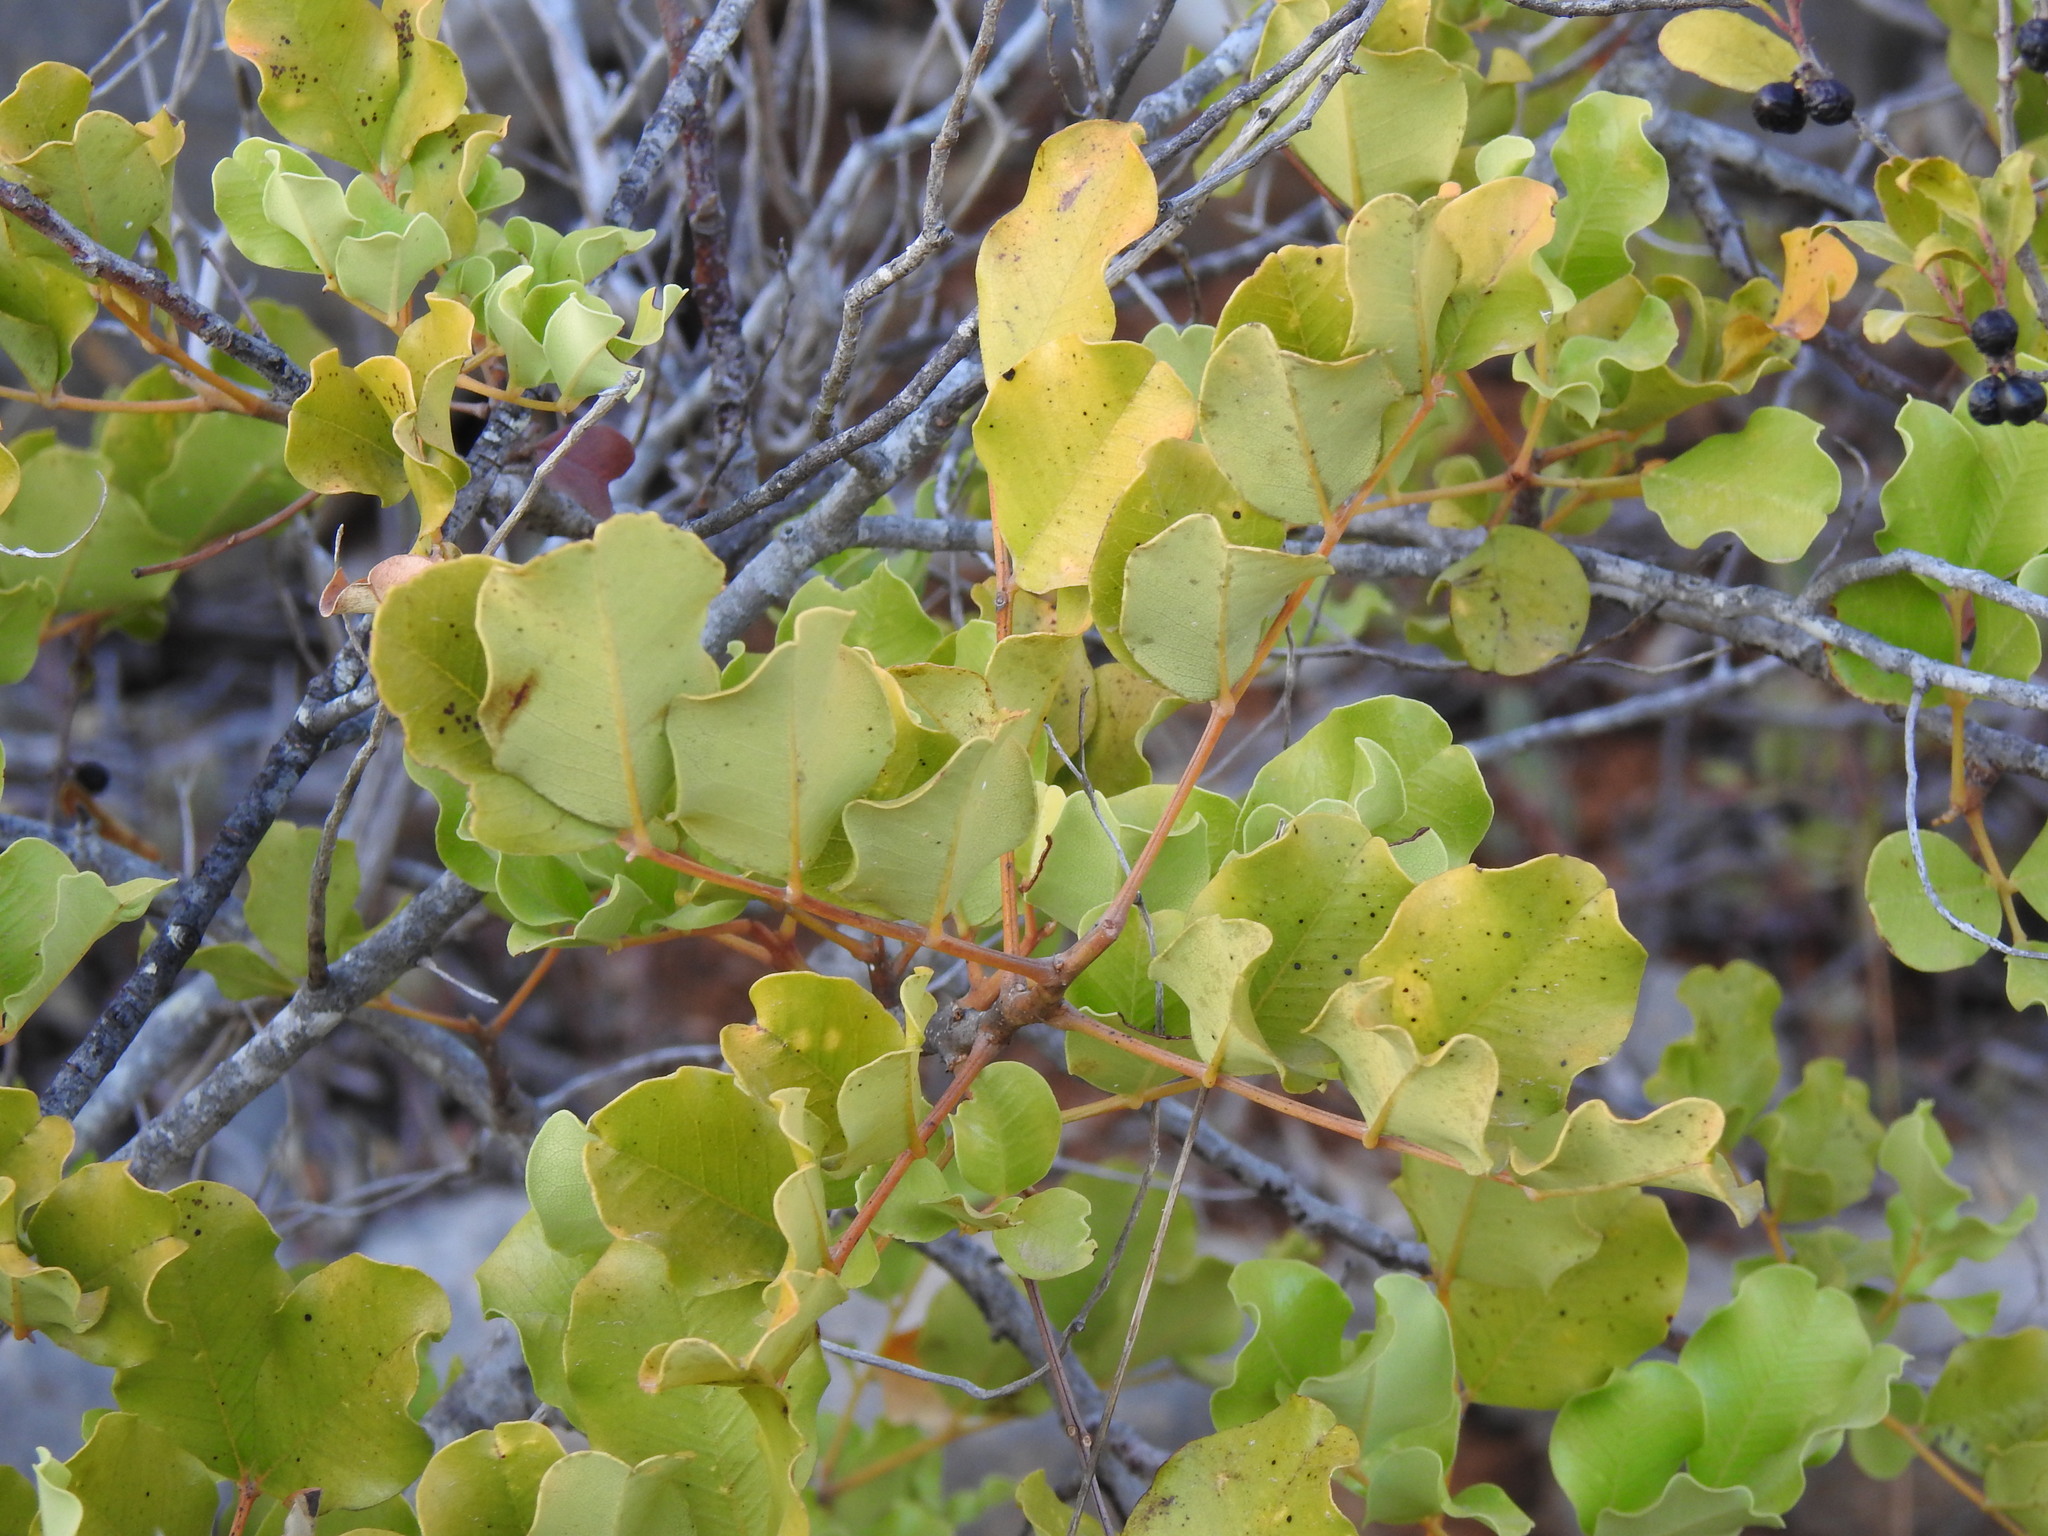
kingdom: Plantae
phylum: Tracheophyta
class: Magnoliopsida
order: Fabales
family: Fabaceae
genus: Ceratonia
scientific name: Ceratonia siliqua
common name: Carob
